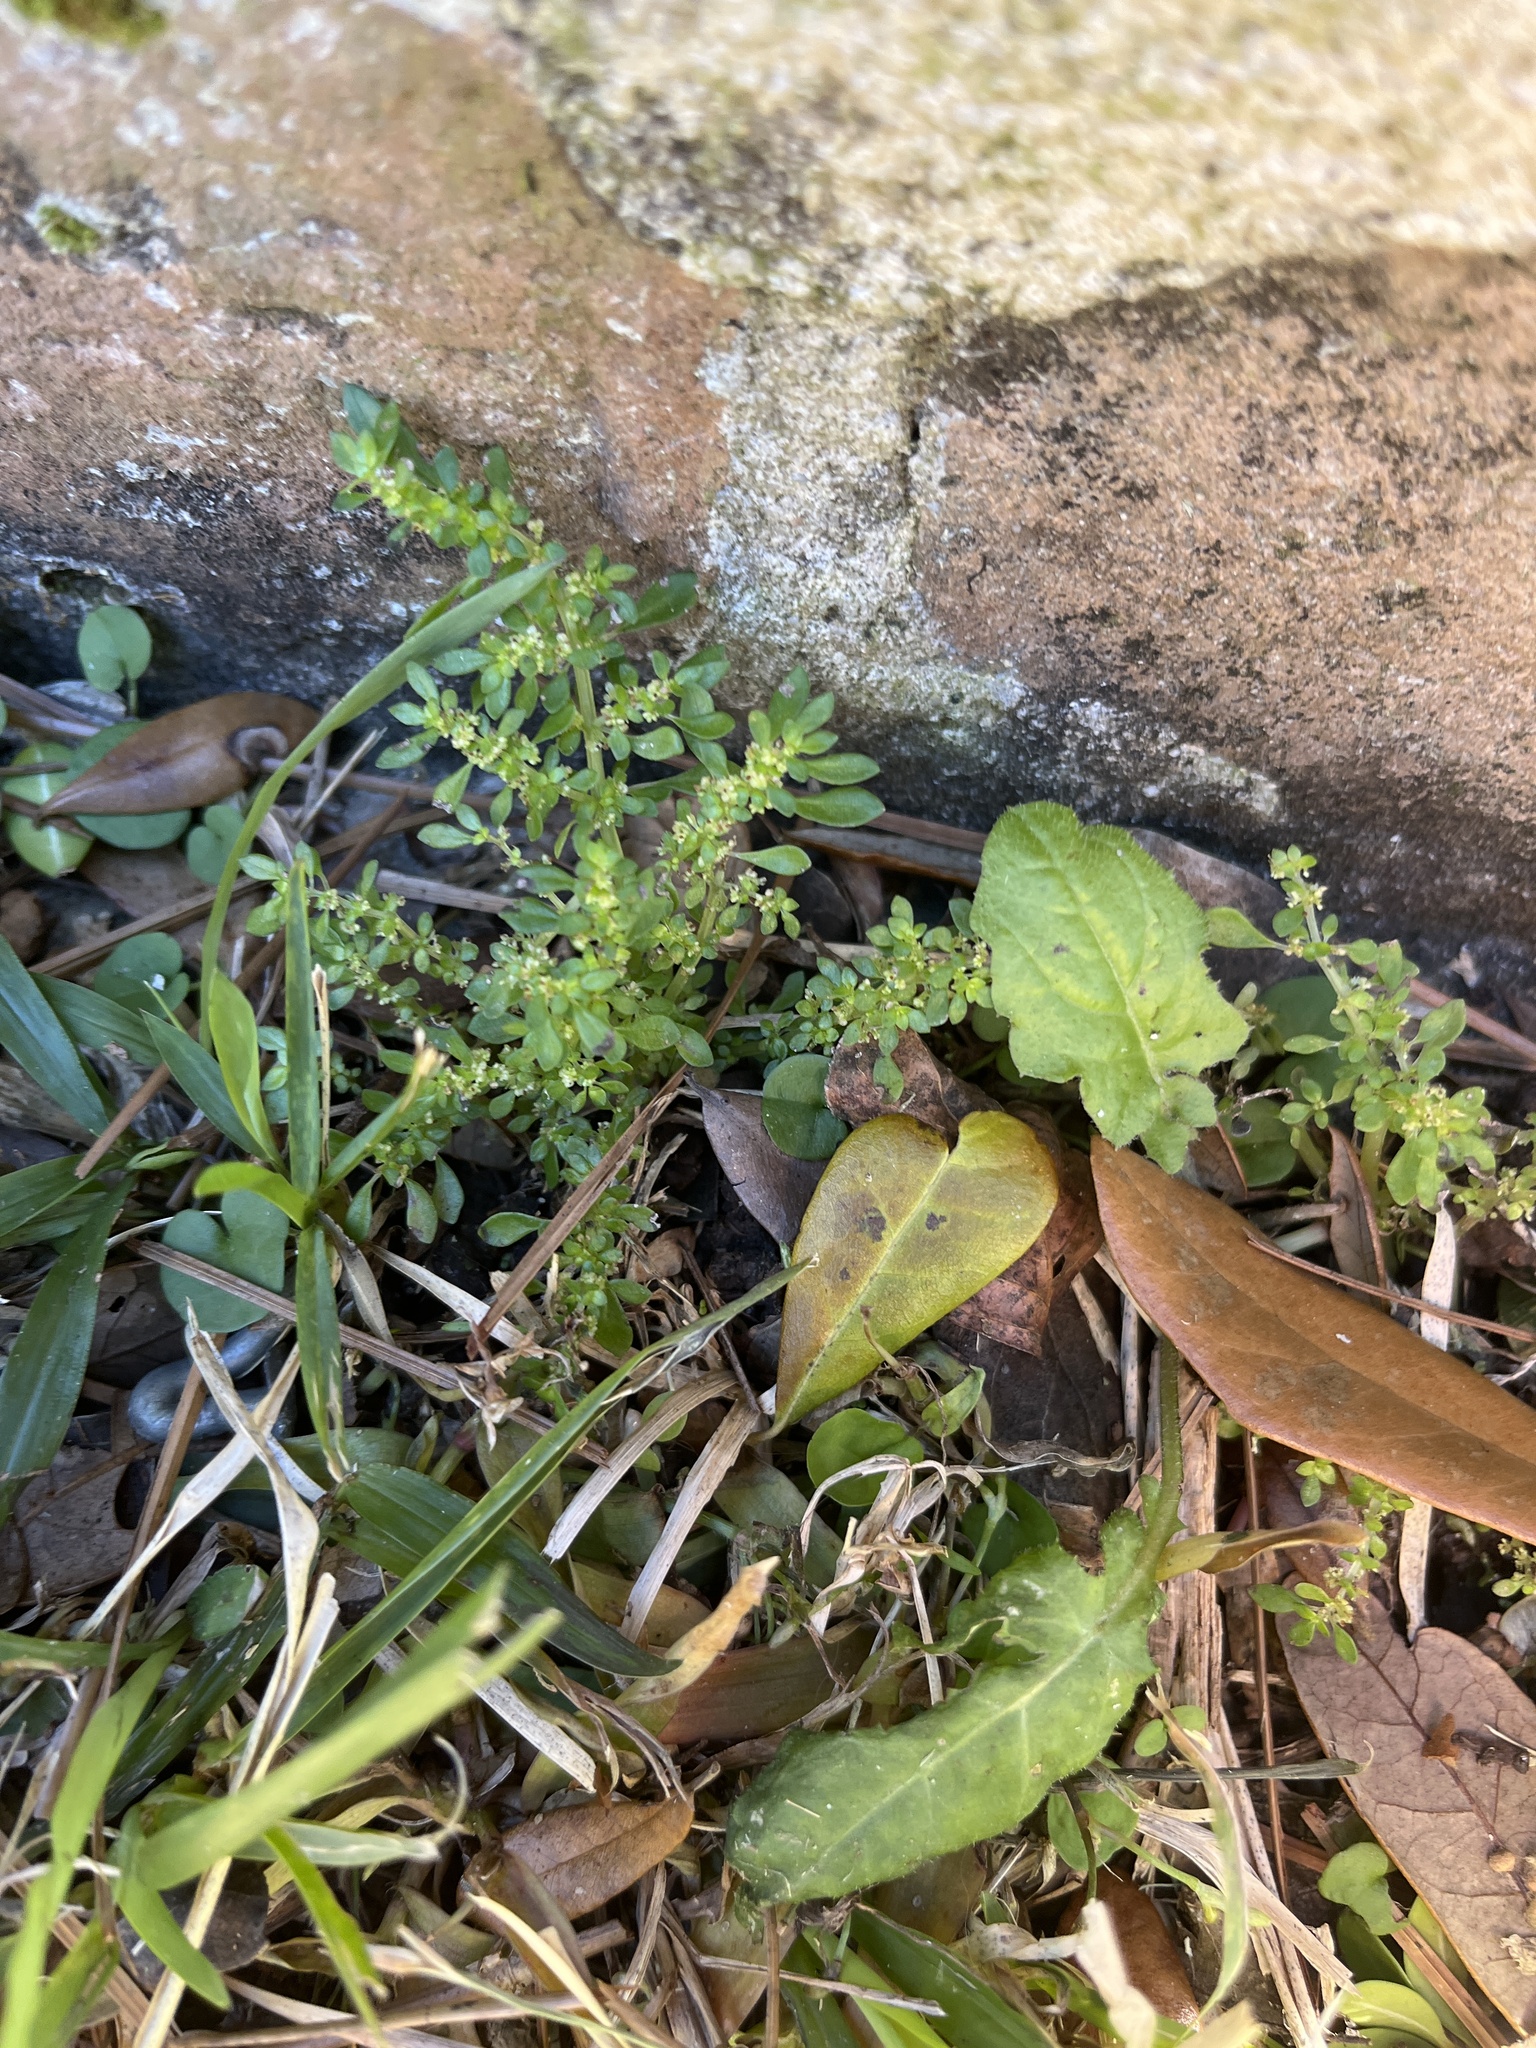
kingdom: Plantae
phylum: Tracheophyta
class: Magnoliopsida
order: Rosales
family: Urticaceae
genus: Pilea
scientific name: Pilea microphylla
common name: Artillery-plant
